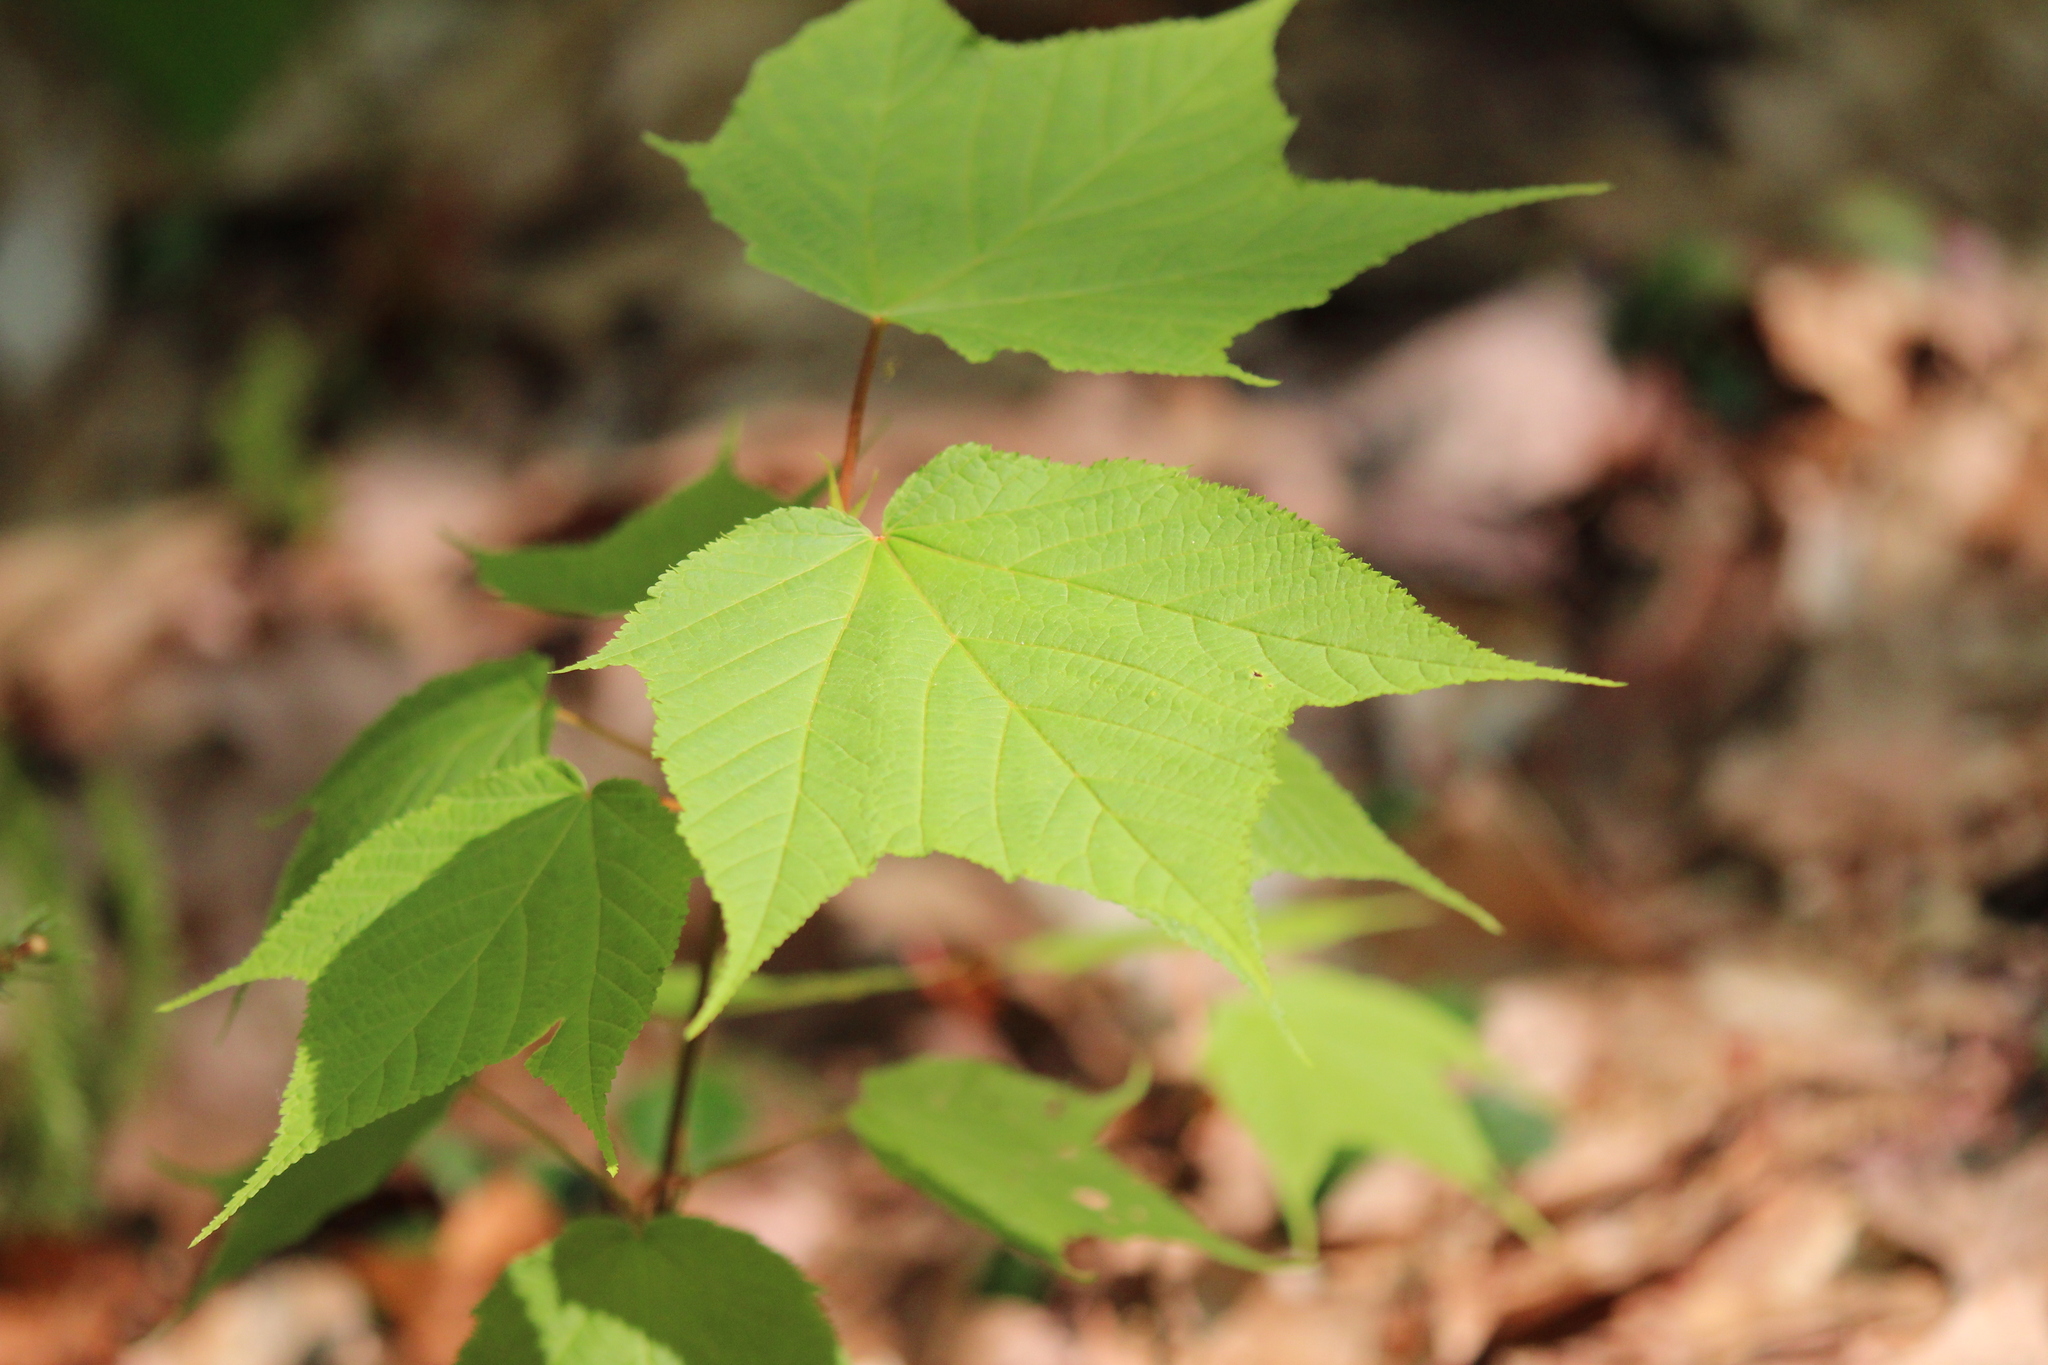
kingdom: Plantae
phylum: Tracheophyta
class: Magnoliopsida
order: Sapindales
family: Sapindaceae
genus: Acer
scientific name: Acer pensylvanicum
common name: Moosewood
